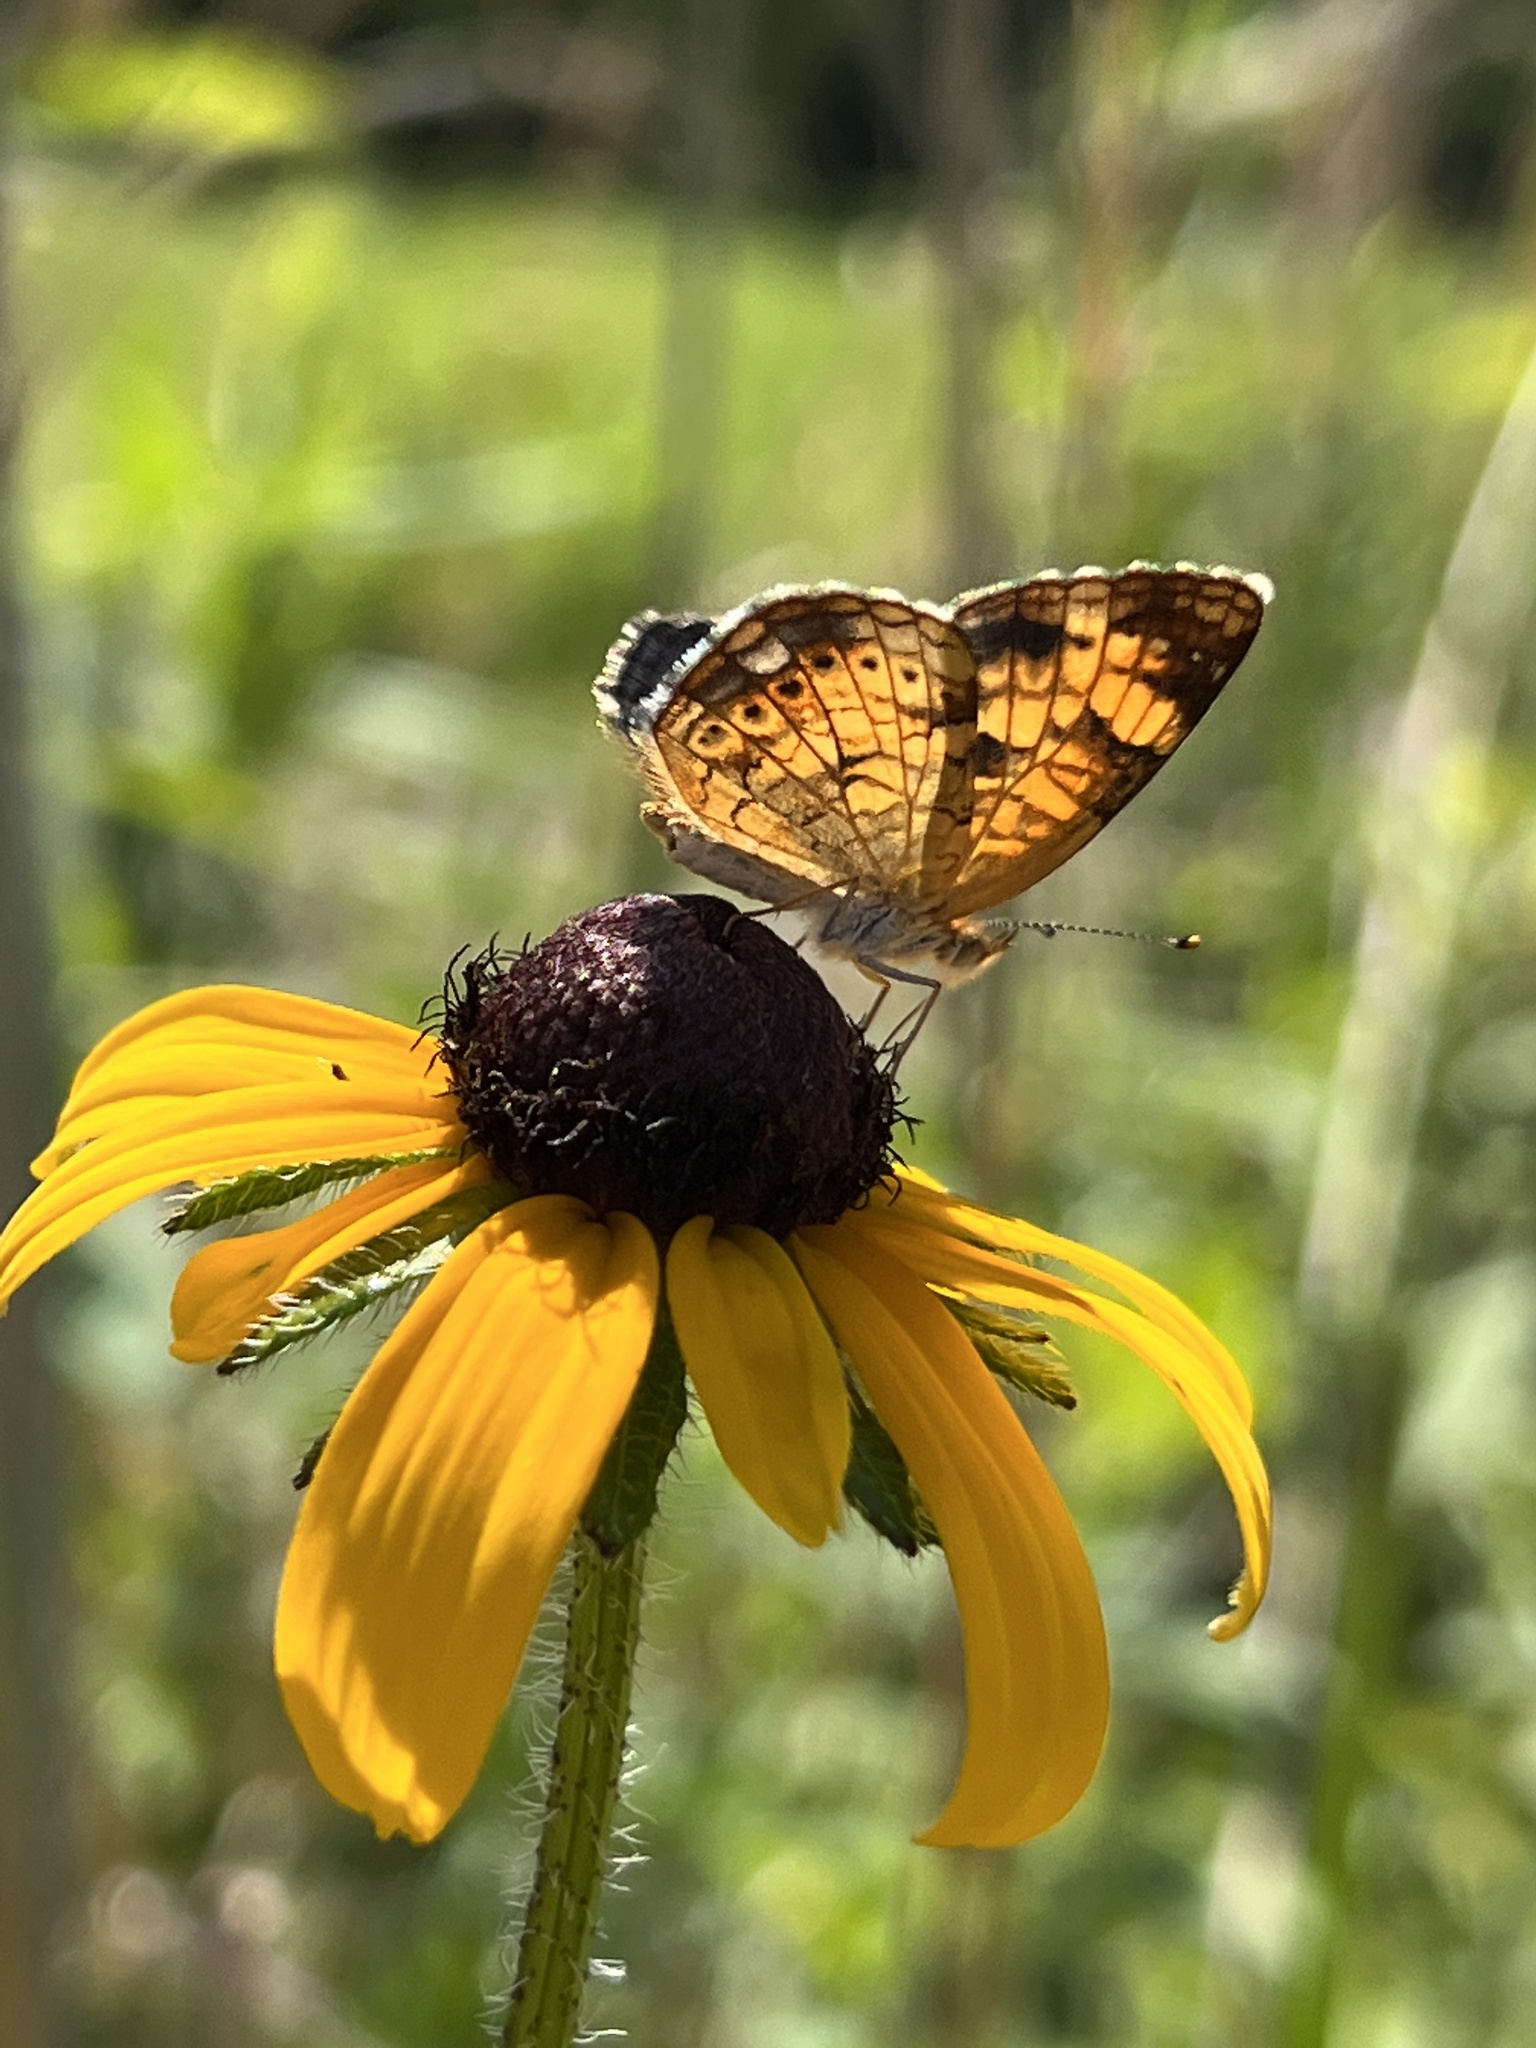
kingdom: Animalia
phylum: Arthropoda
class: Insecta
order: Lepidoptera
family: Nymphalidae
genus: Phyciodes
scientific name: Phyciodes tharos
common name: Pearl crescent
